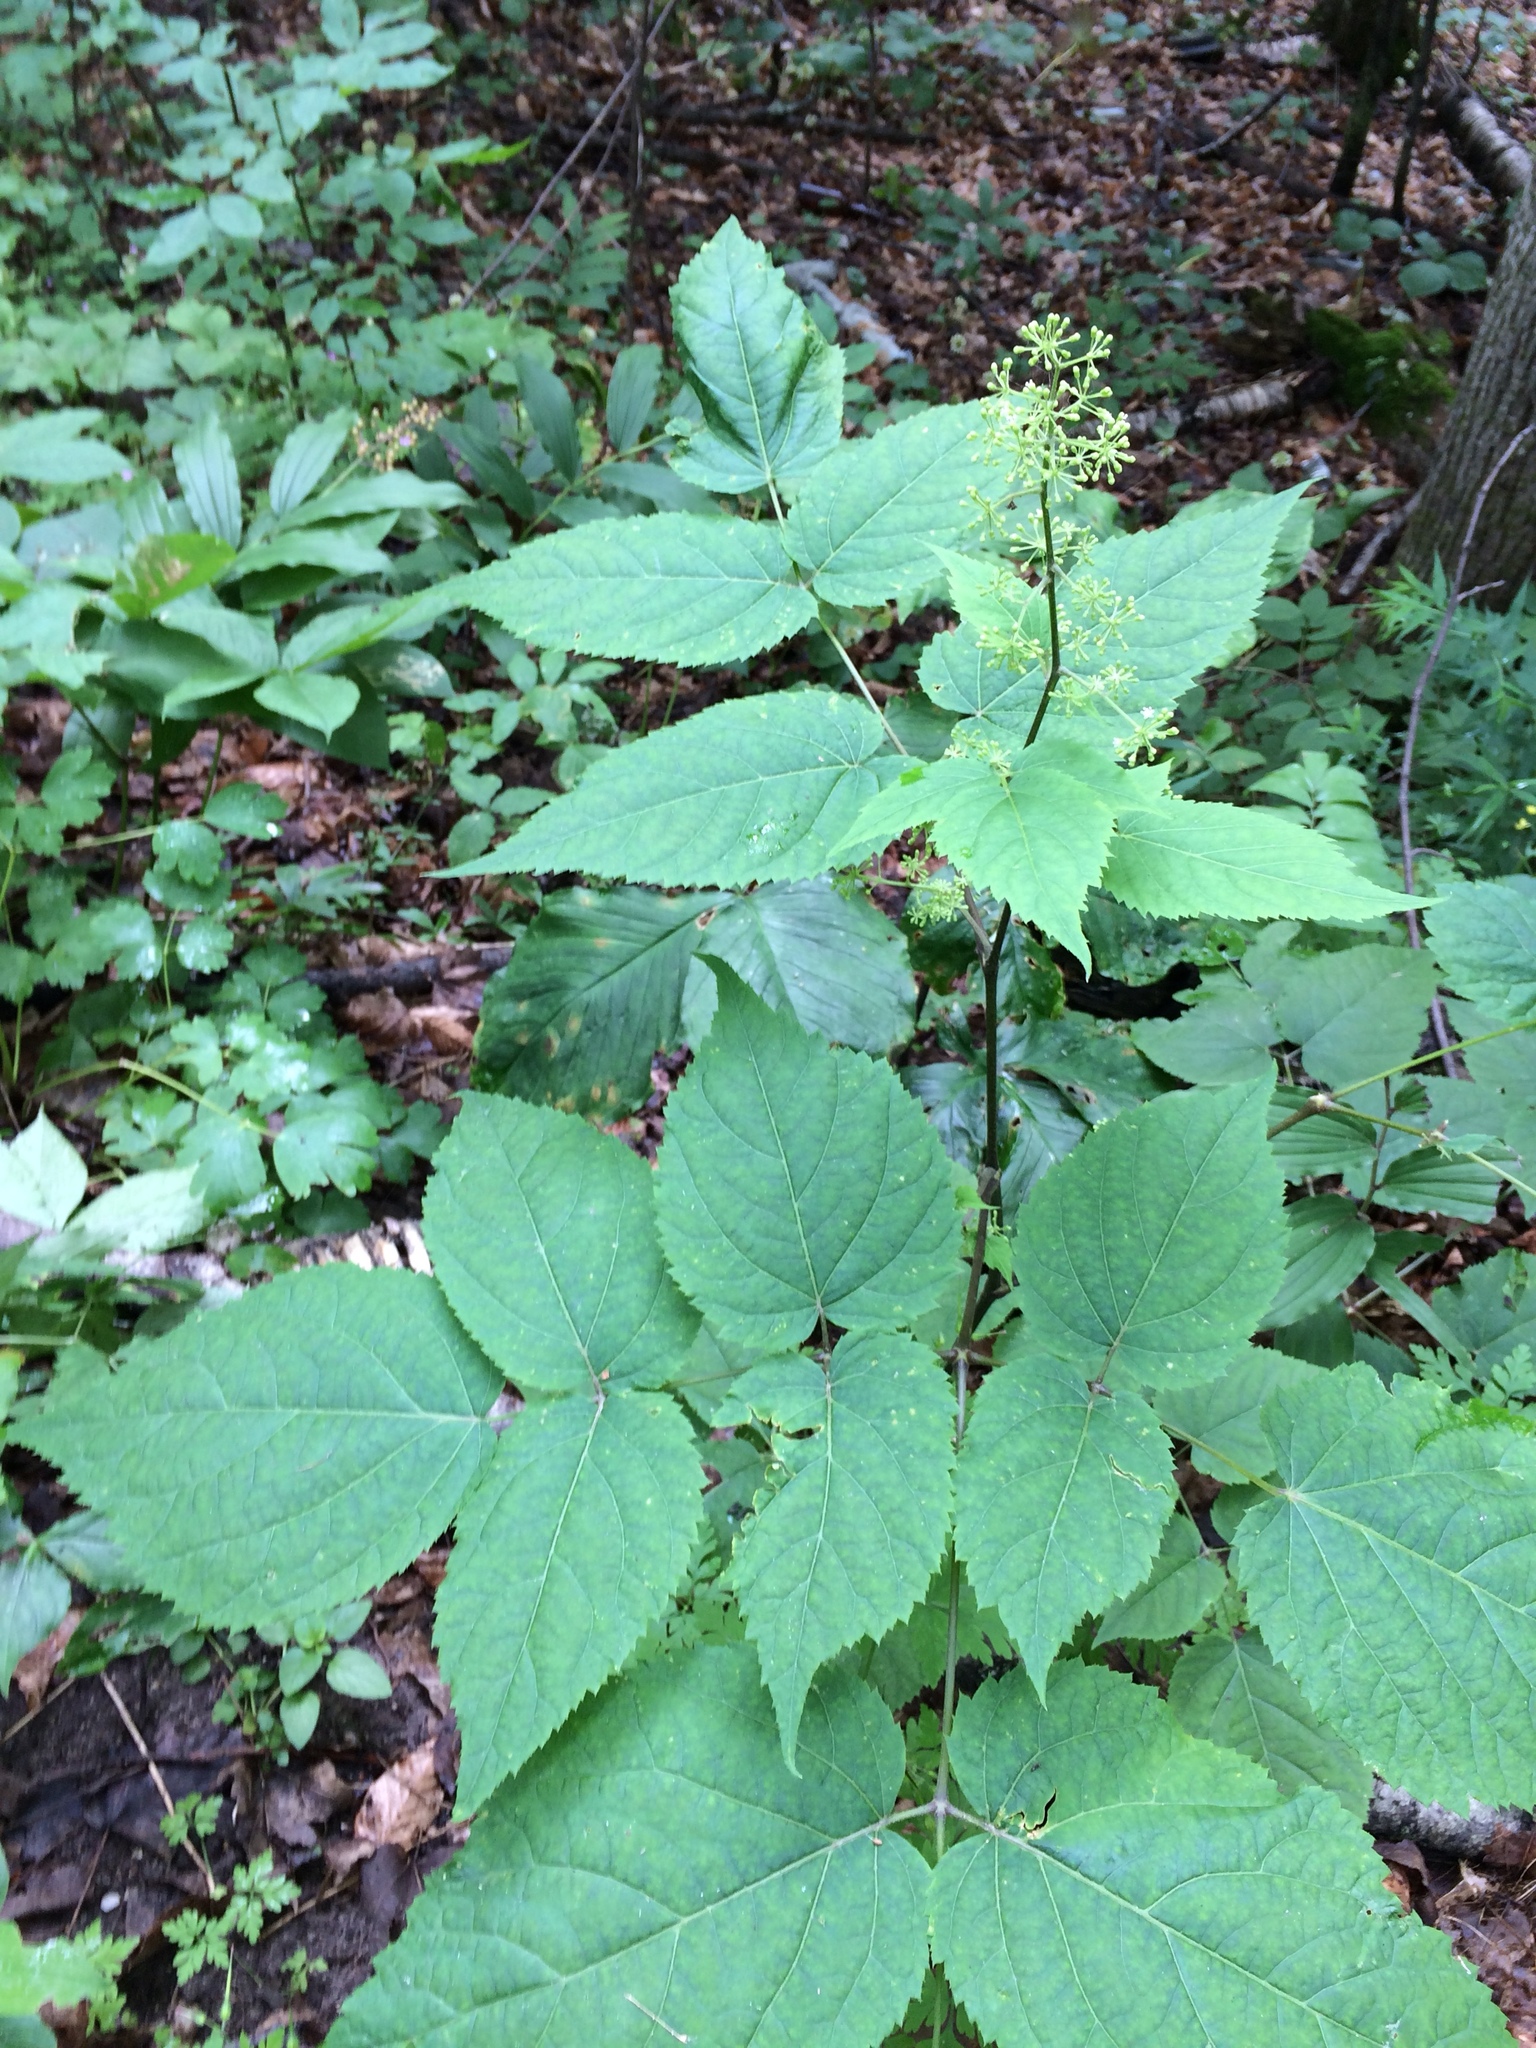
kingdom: Plantae
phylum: Tracheophyta
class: Magnoliopsida
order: Apiales
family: Araliaceae
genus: Aralia
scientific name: Aralia racemosa
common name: American-spikenard
